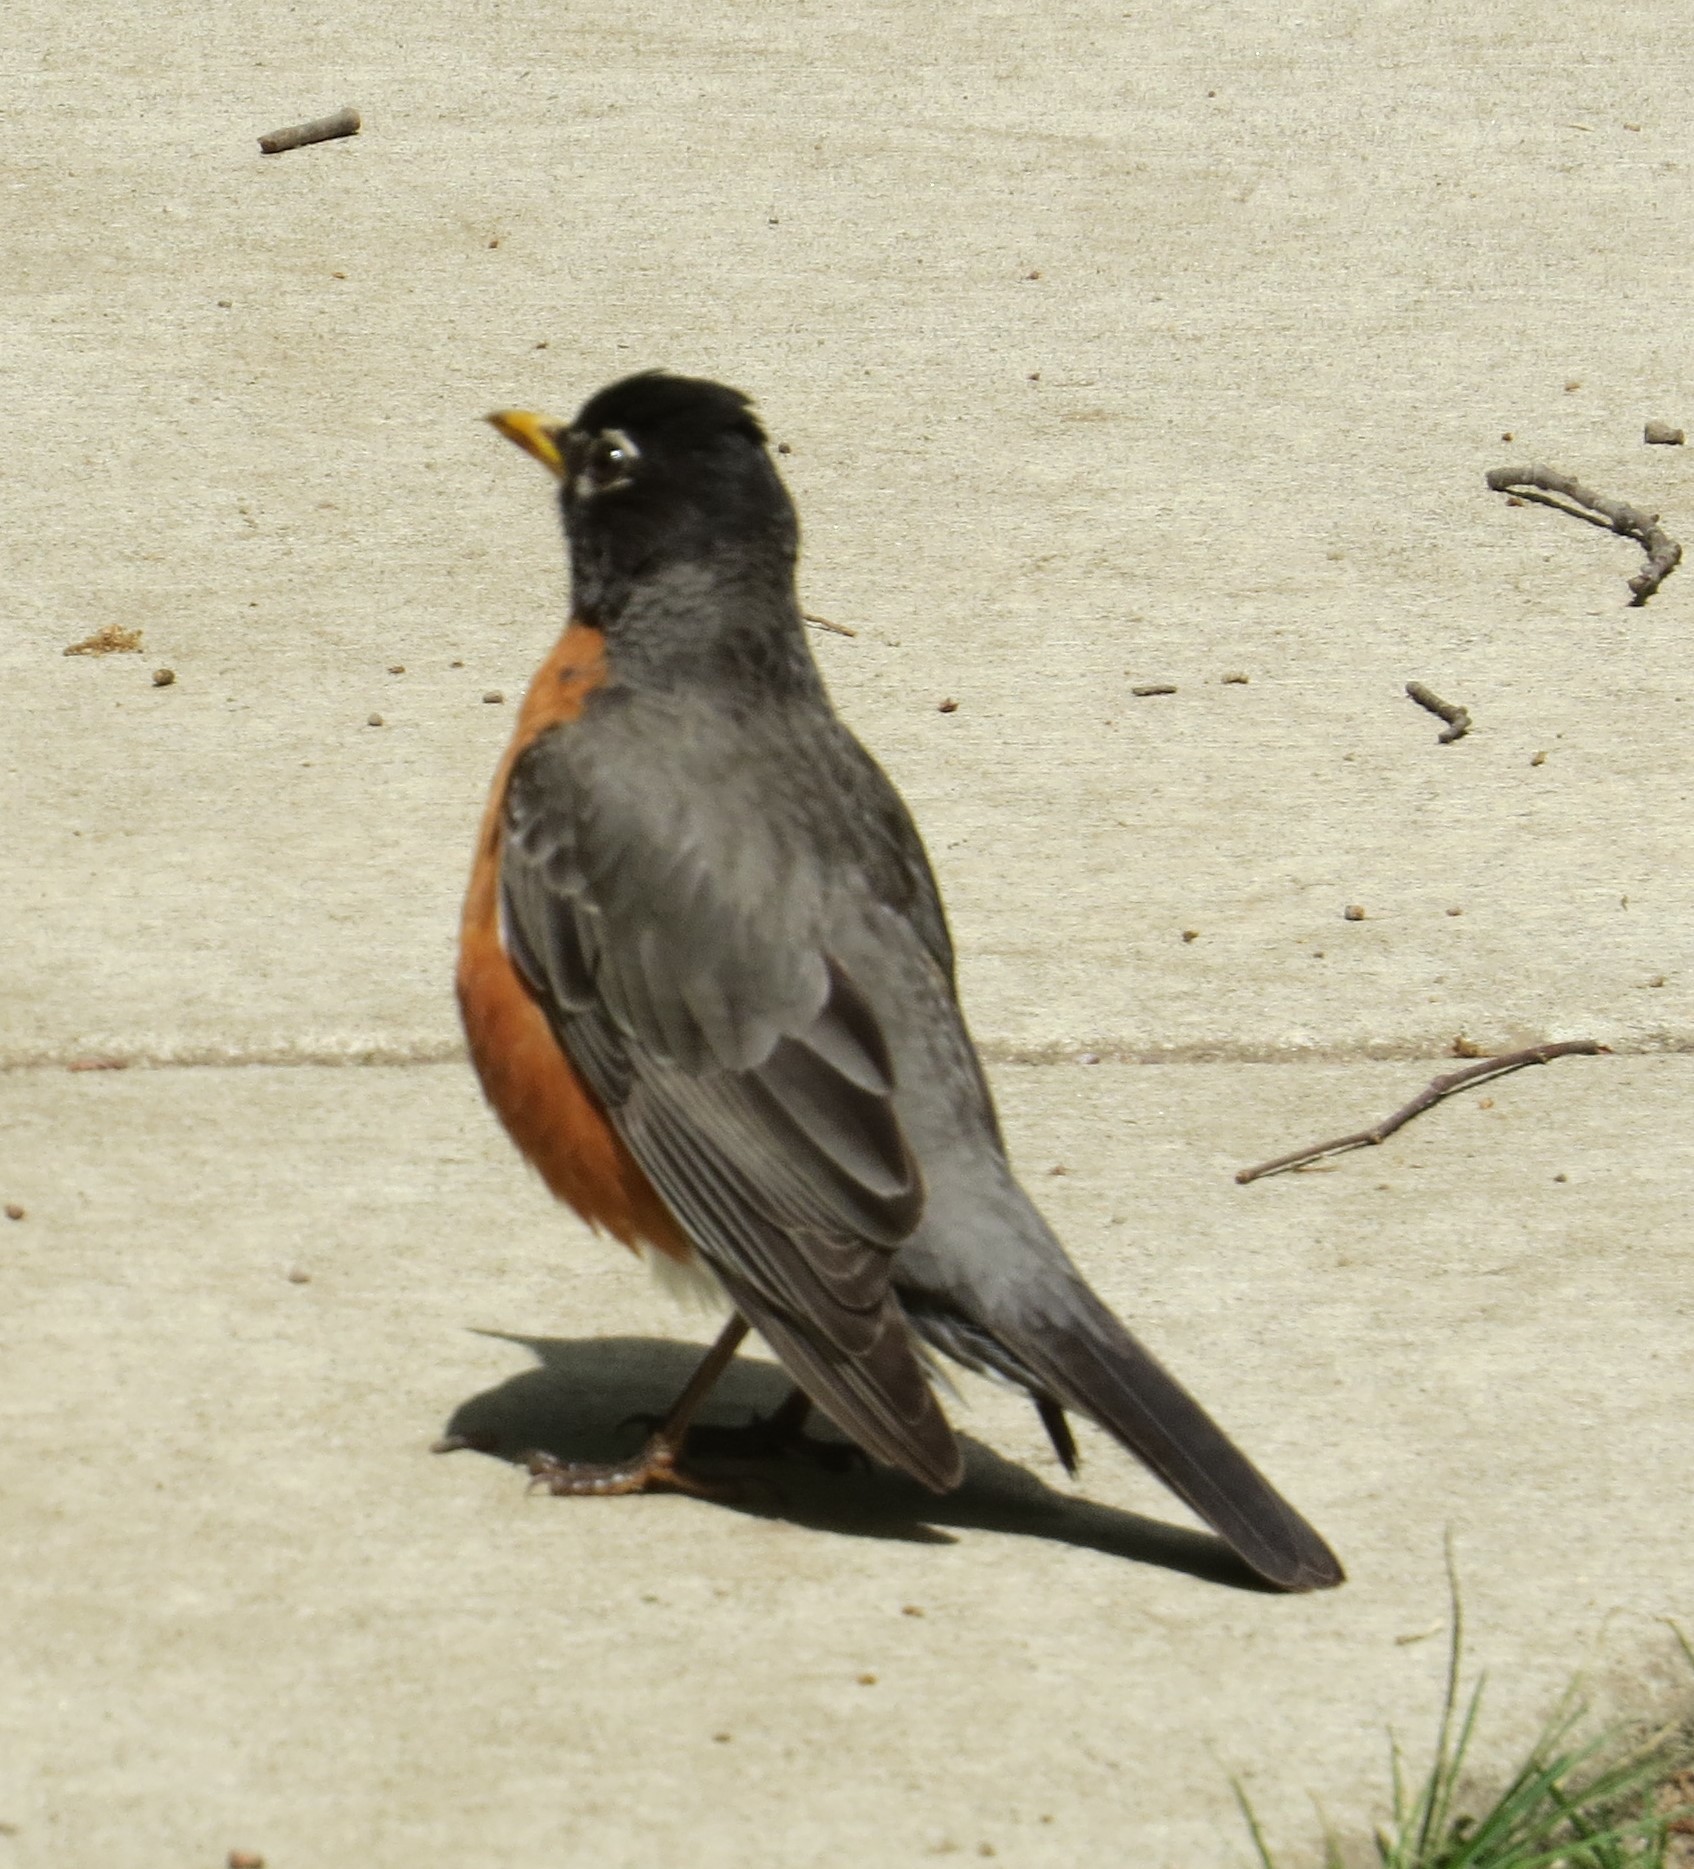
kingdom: Animalia
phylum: Chordata
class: Aves
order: Passeriformes
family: Turdidae
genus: Turdus
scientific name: Turdus migratorius
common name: American robin
